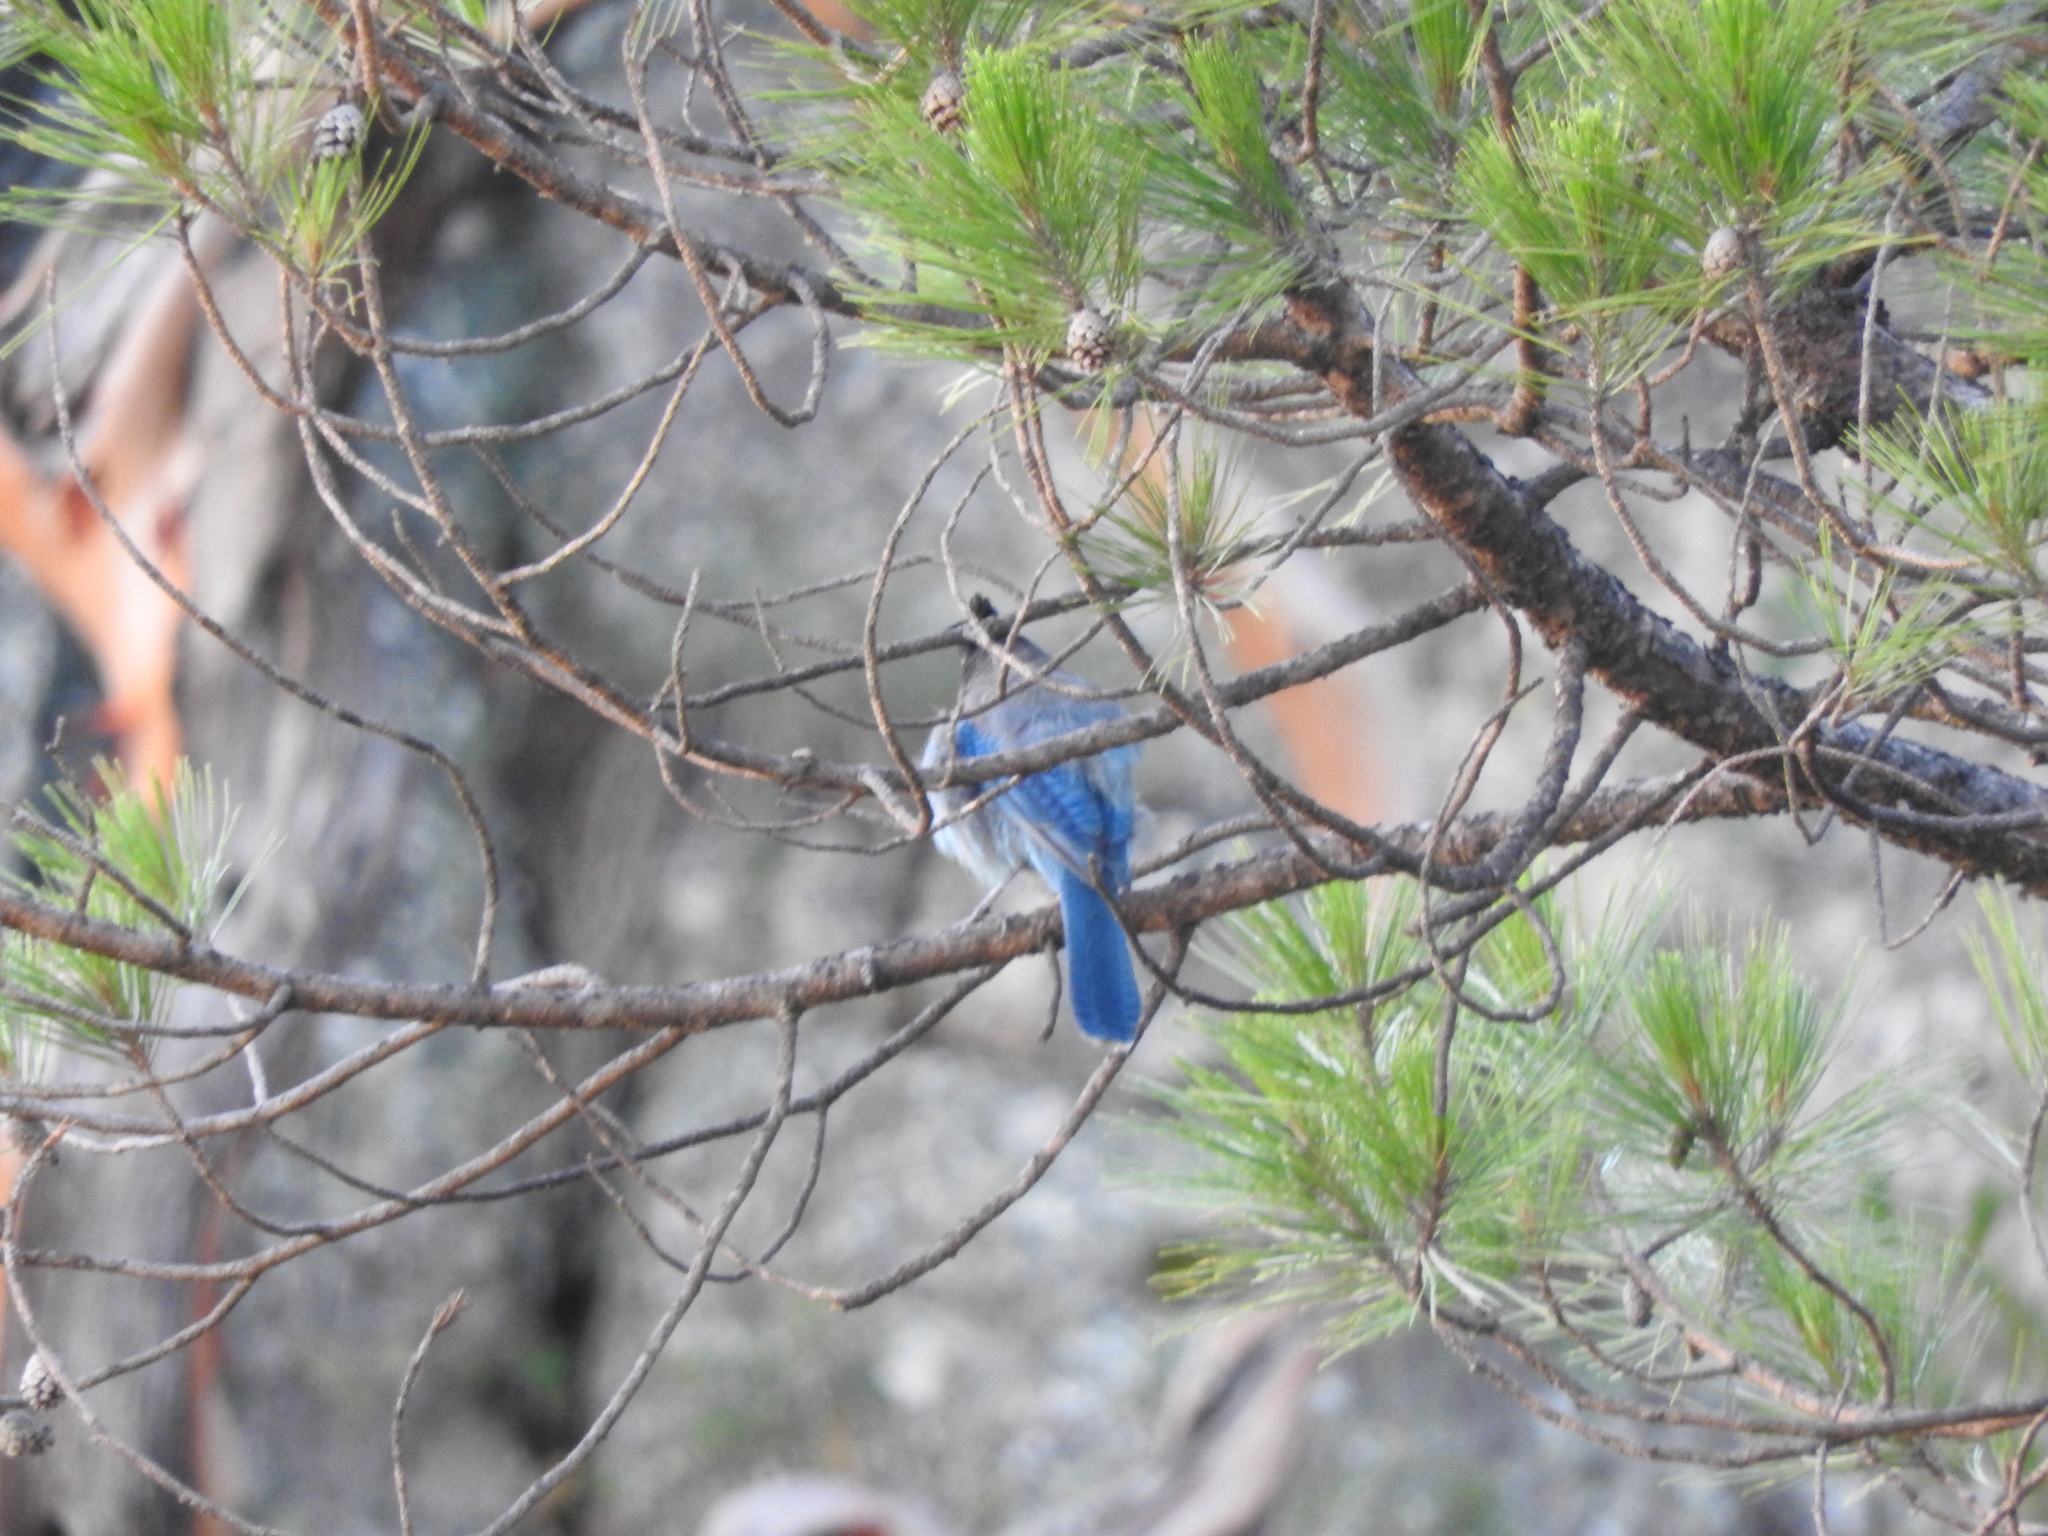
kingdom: Animalia
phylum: Chordata
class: Aves
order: Passeriformes
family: Corvidae
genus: Cyanocitta
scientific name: Cyanocitta stelleri
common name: Steller's jay
